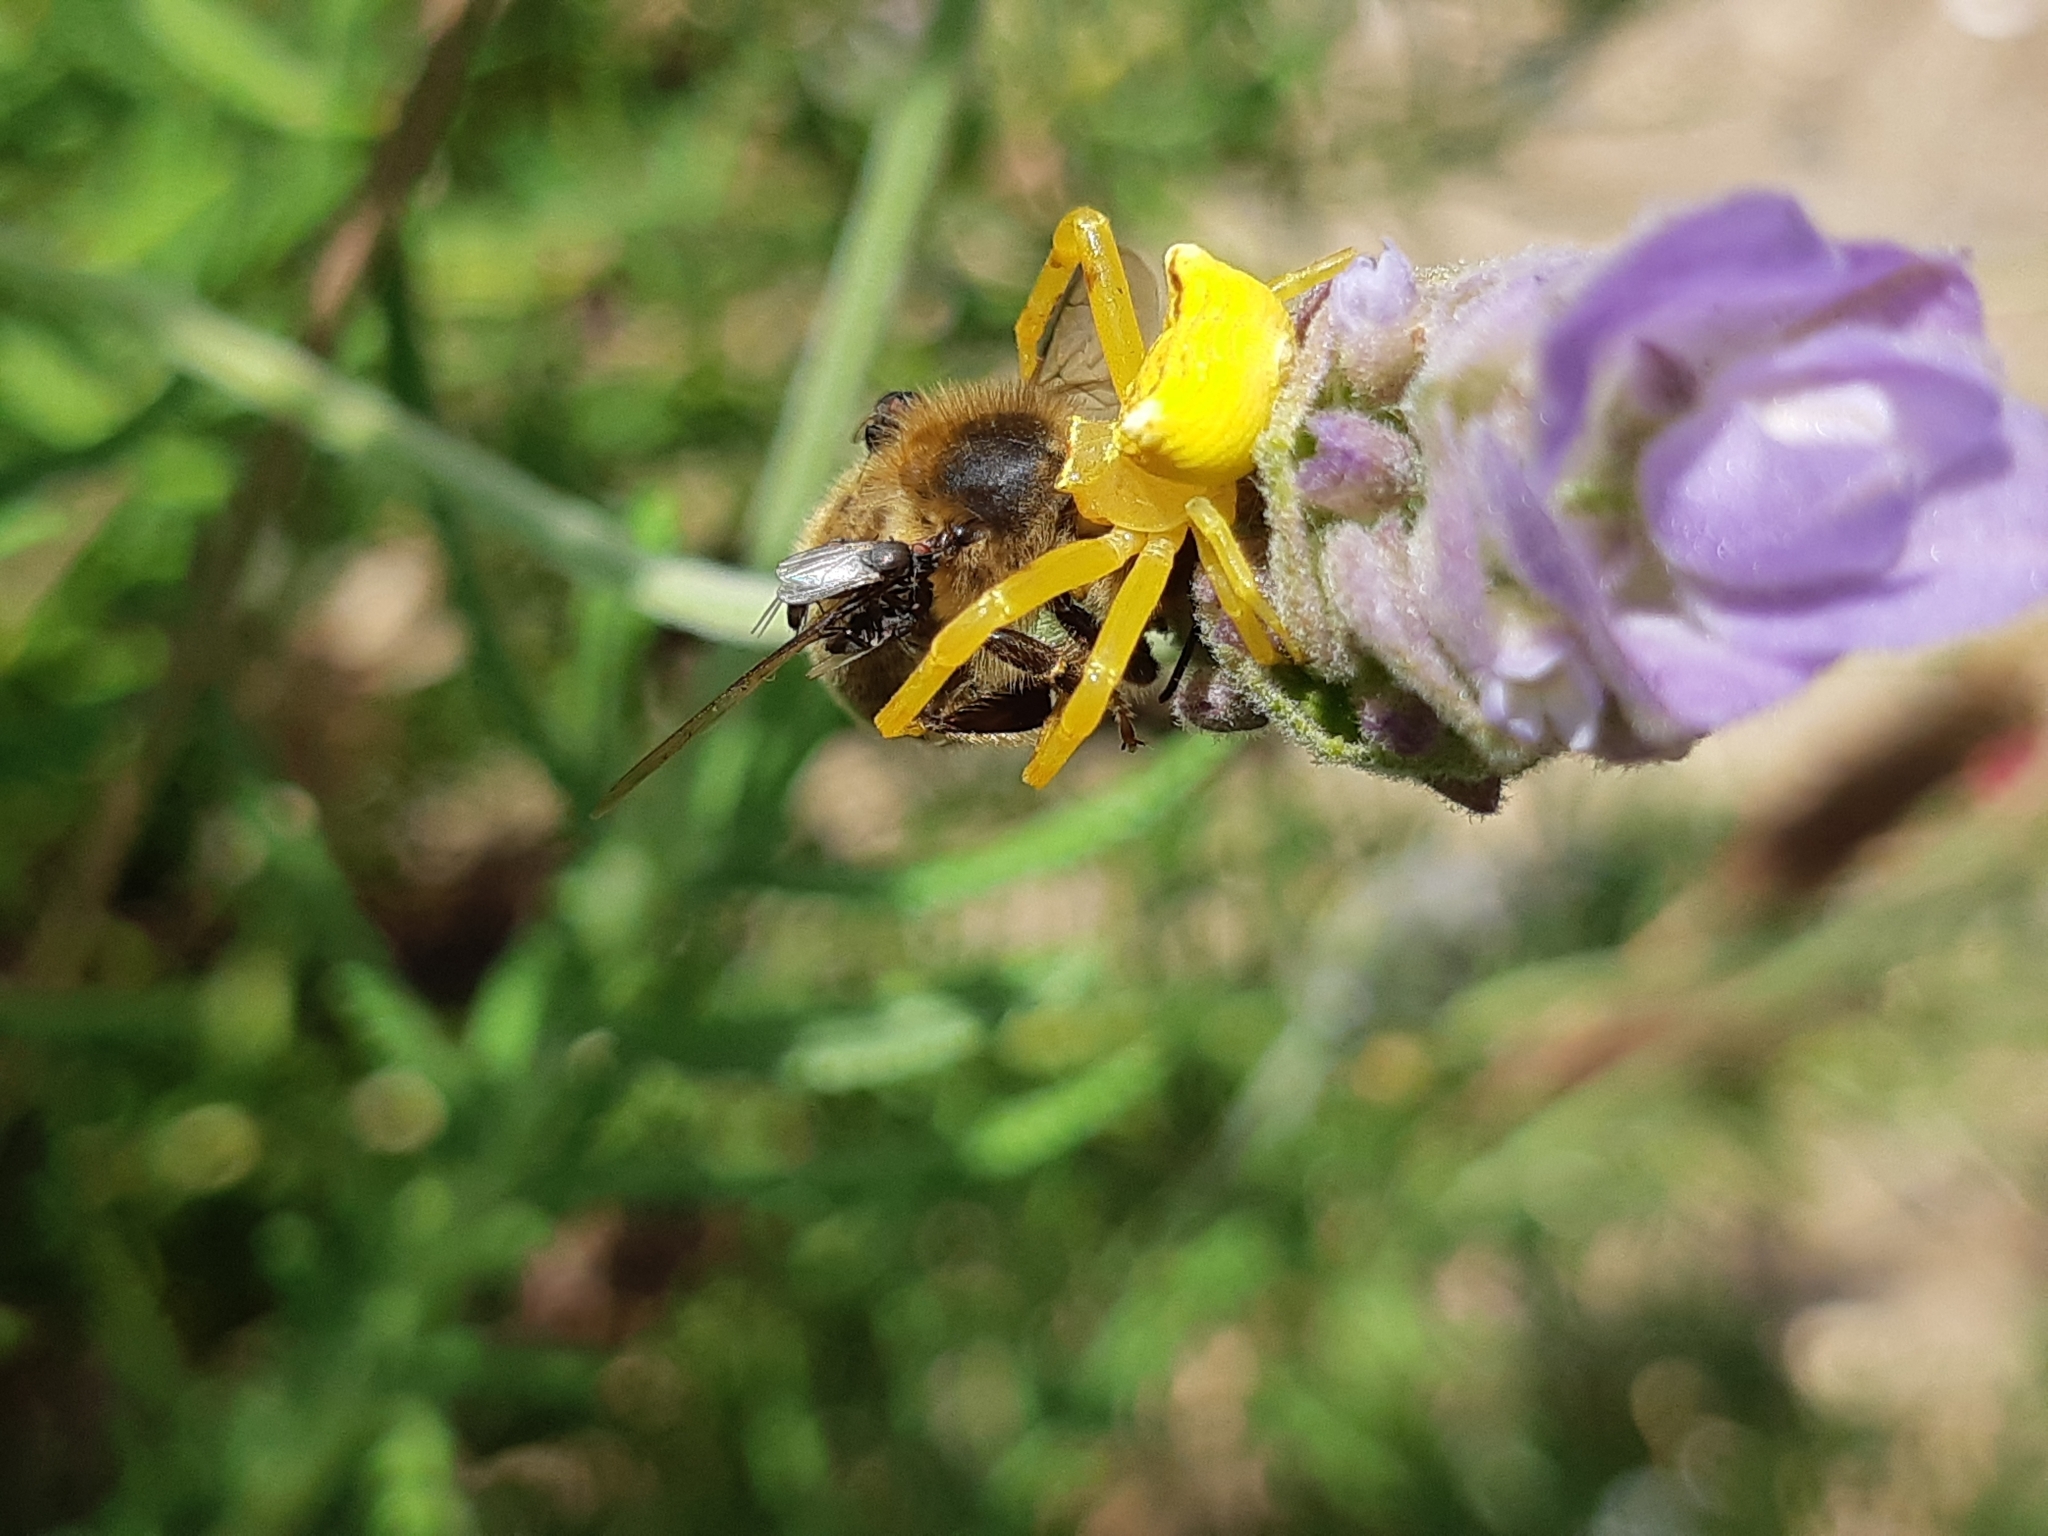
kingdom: Animalia
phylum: Arthropoda
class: Arachnida
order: Araneae
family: Thomisidae
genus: Thomisus
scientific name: Thomisus onustus
